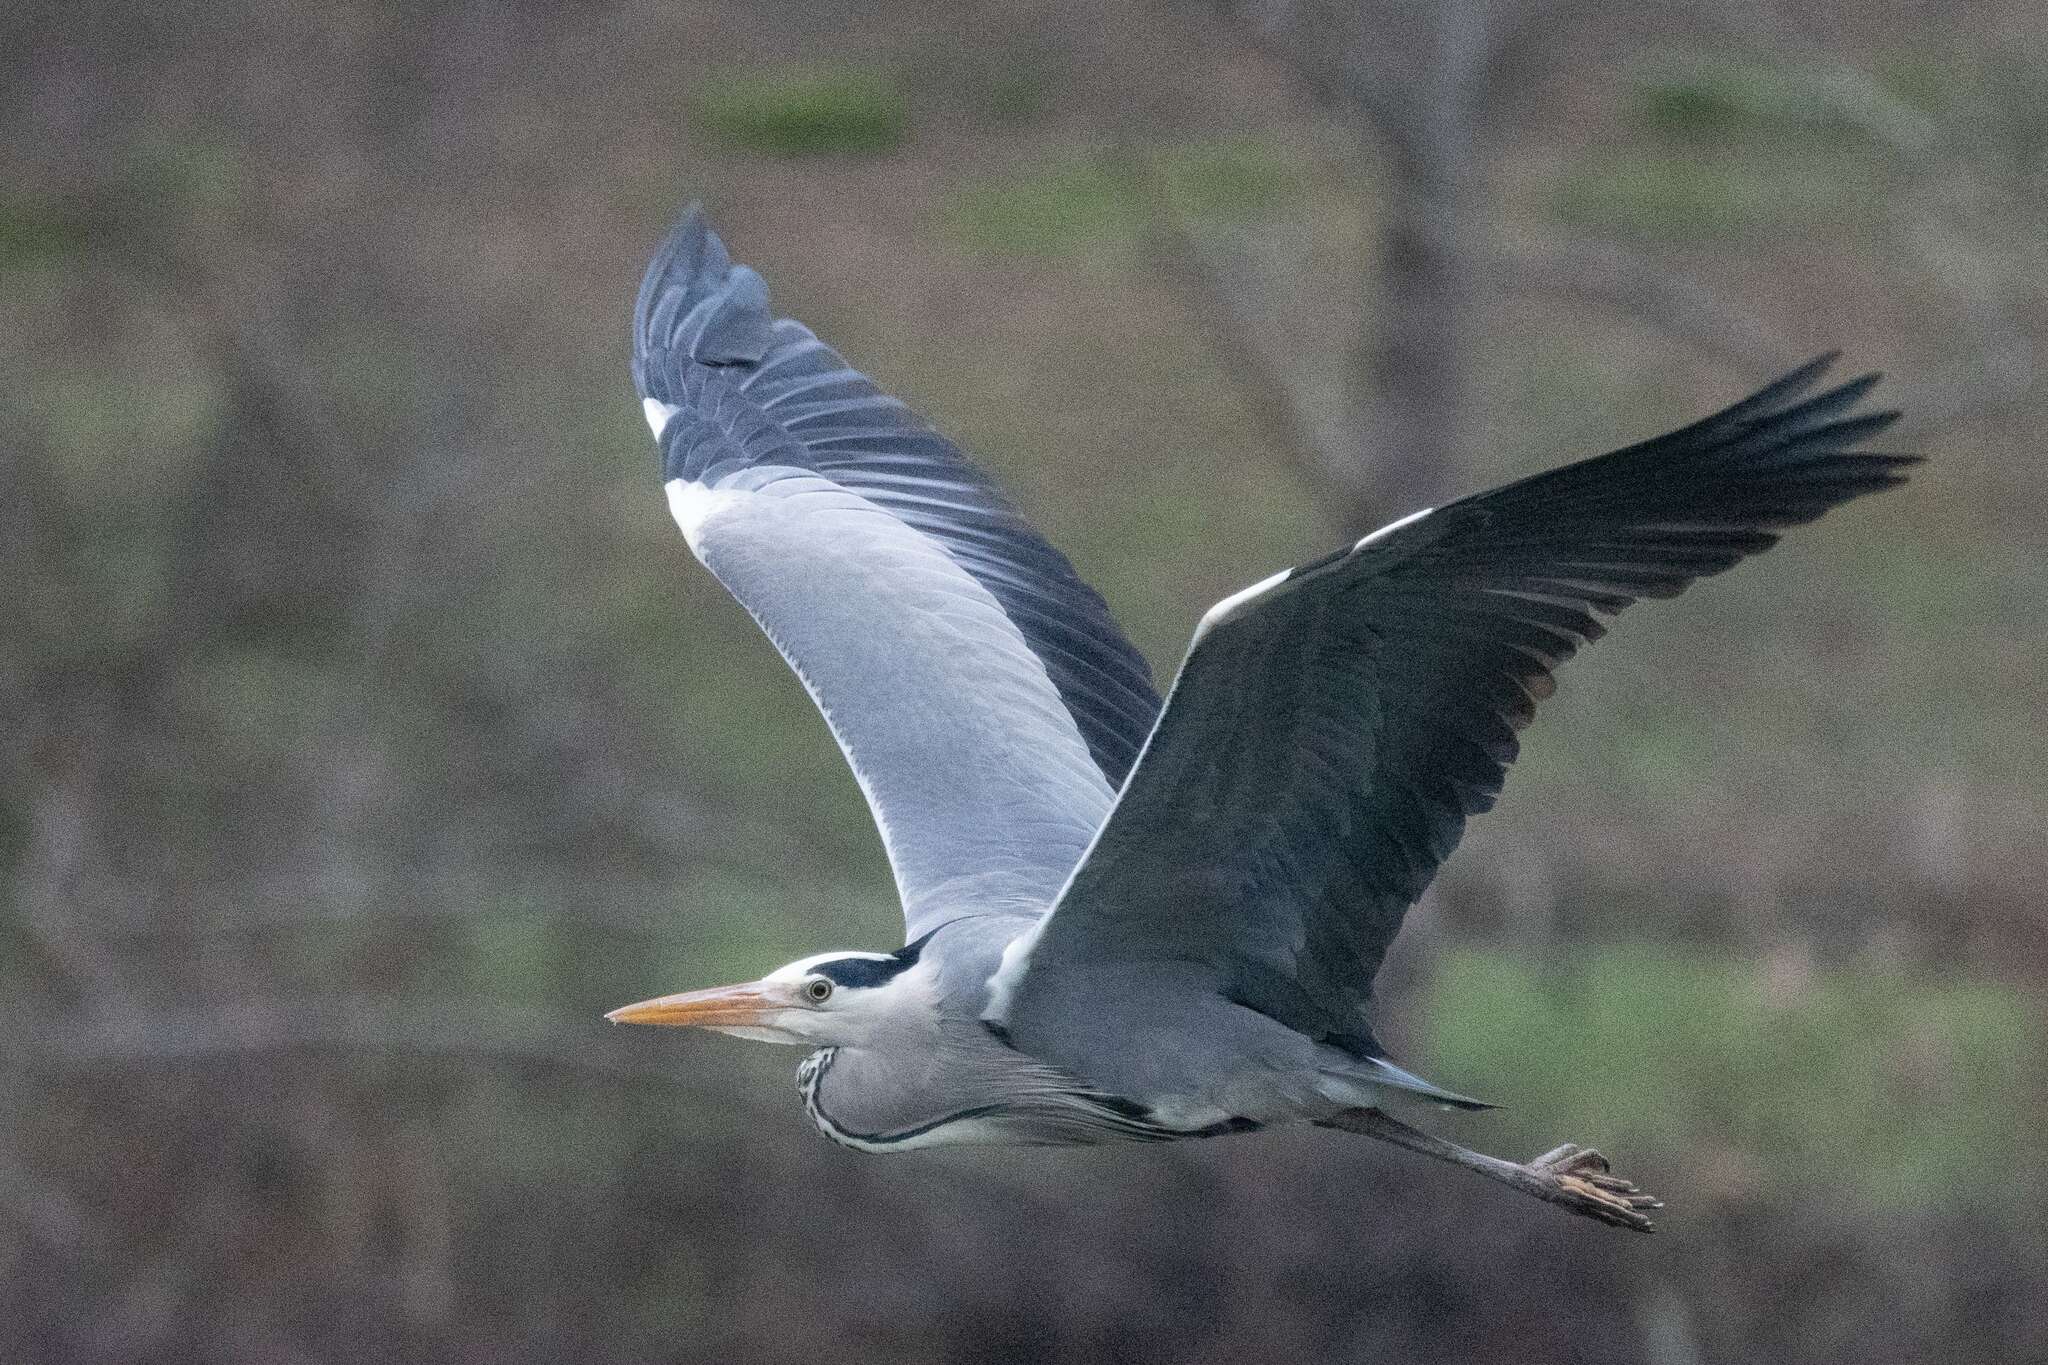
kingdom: Animalia
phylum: Chordata
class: Aves
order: Pelecaniformes
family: Ardeidae
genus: Ardea
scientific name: Ardea cinerea
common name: Grey heron
